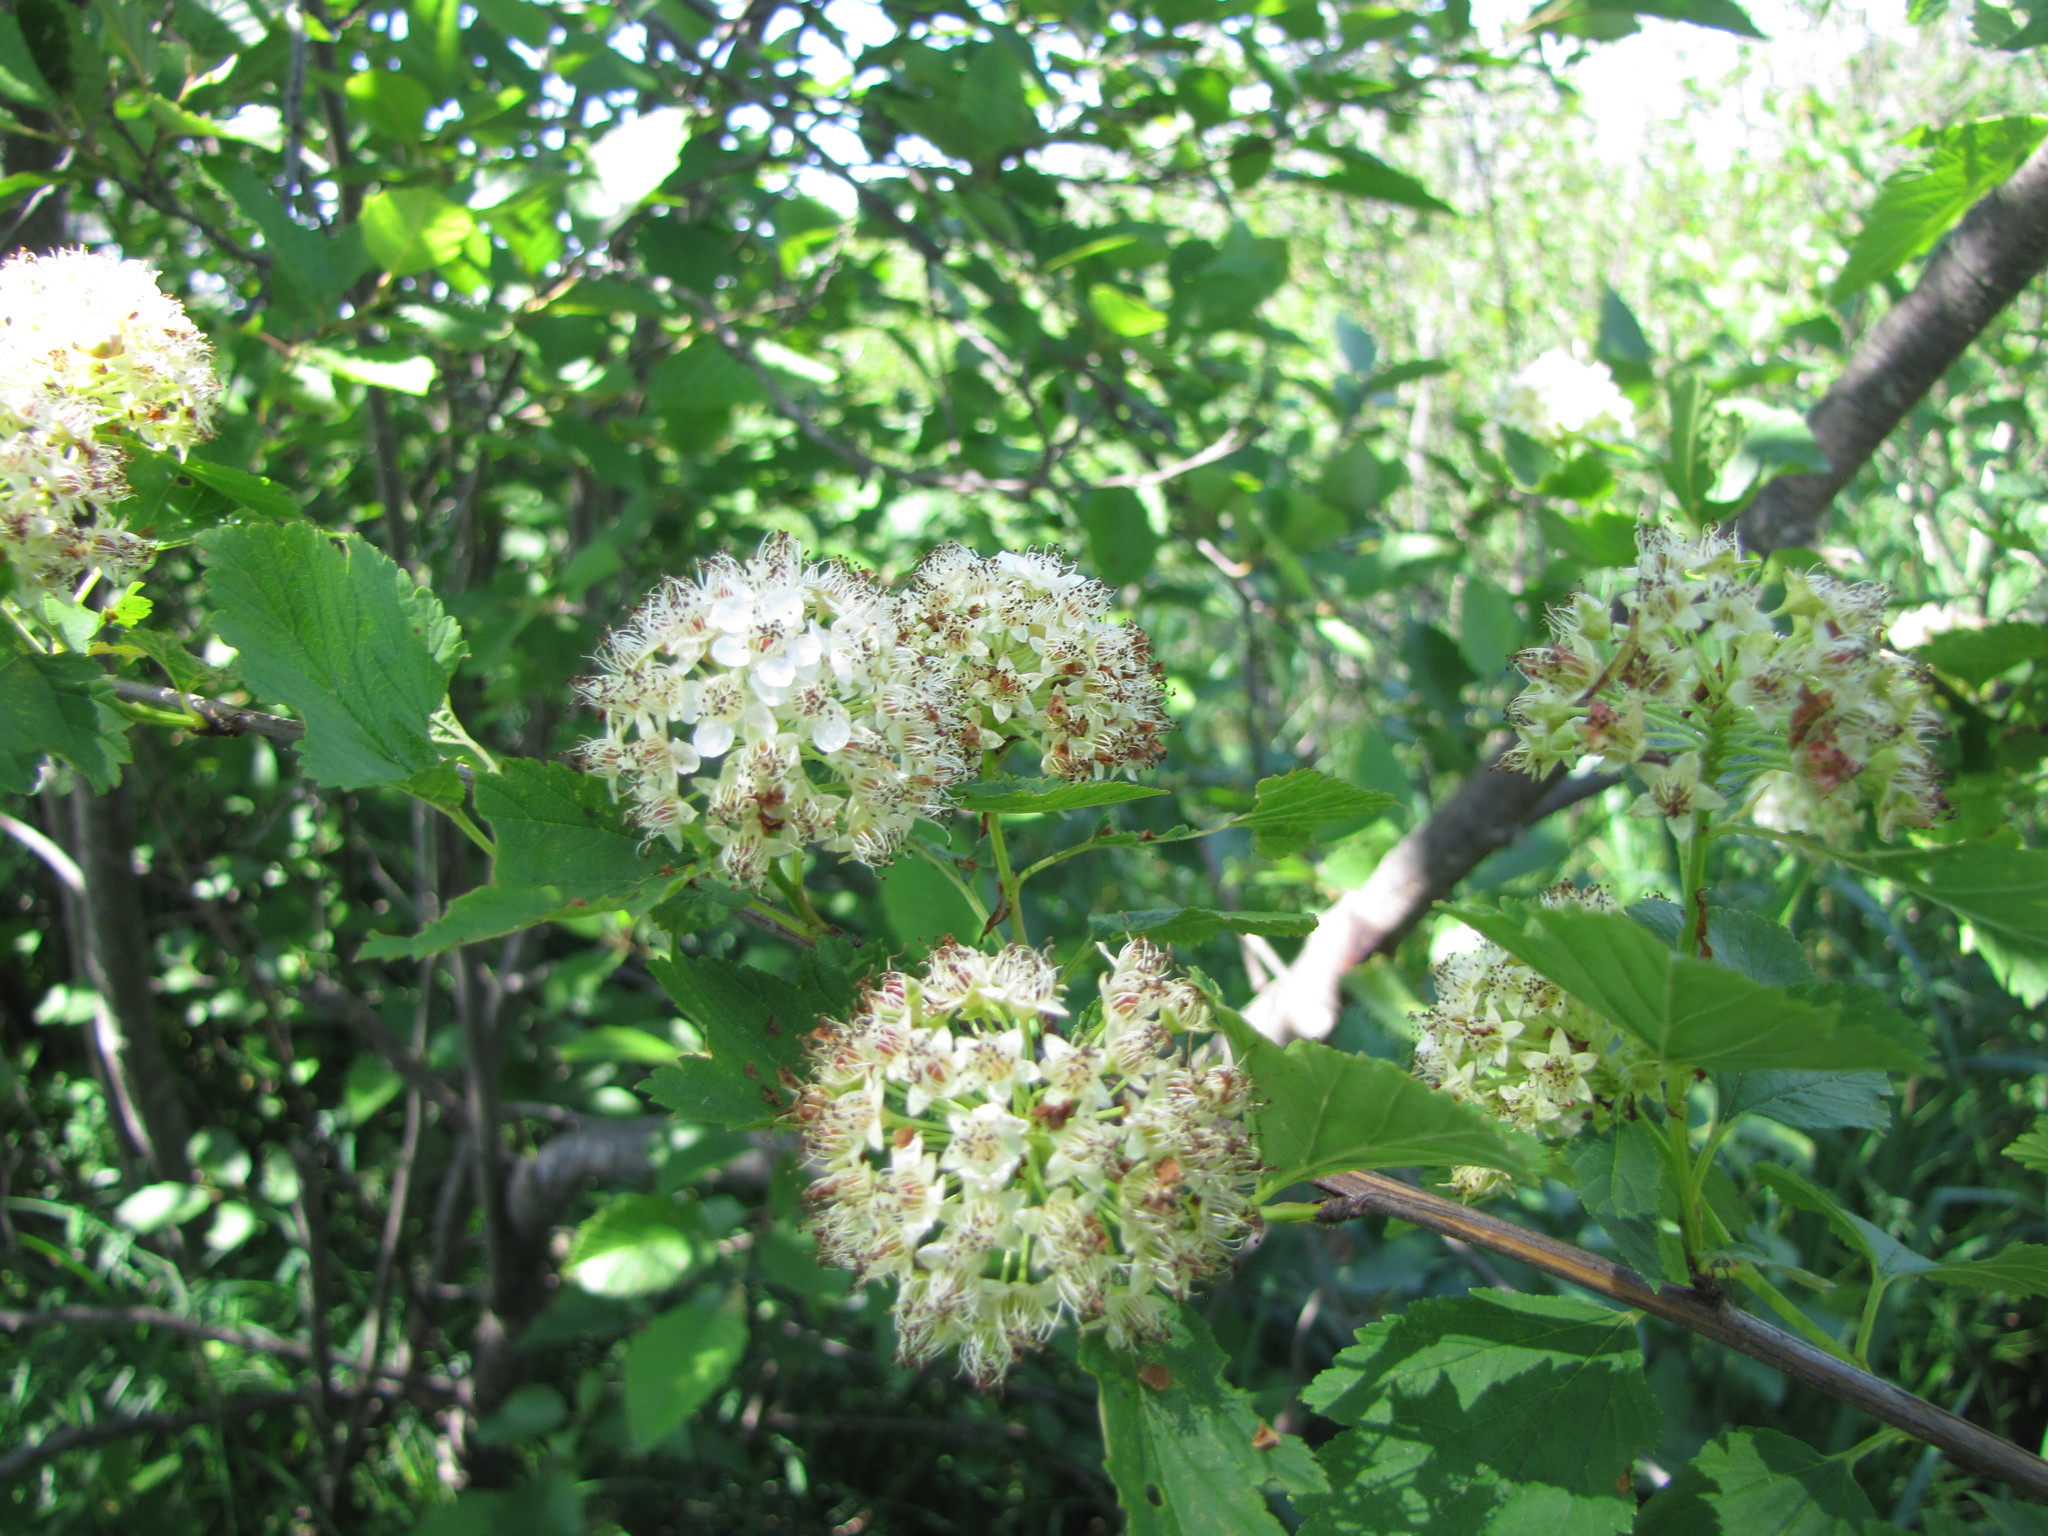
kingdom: Plantae
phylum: Tracheophyta
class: Magnoliopsida
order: Rosales
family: Rosaceae
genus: Physocarpus
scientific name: Physocarpus opulifolius
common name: Ninebark
